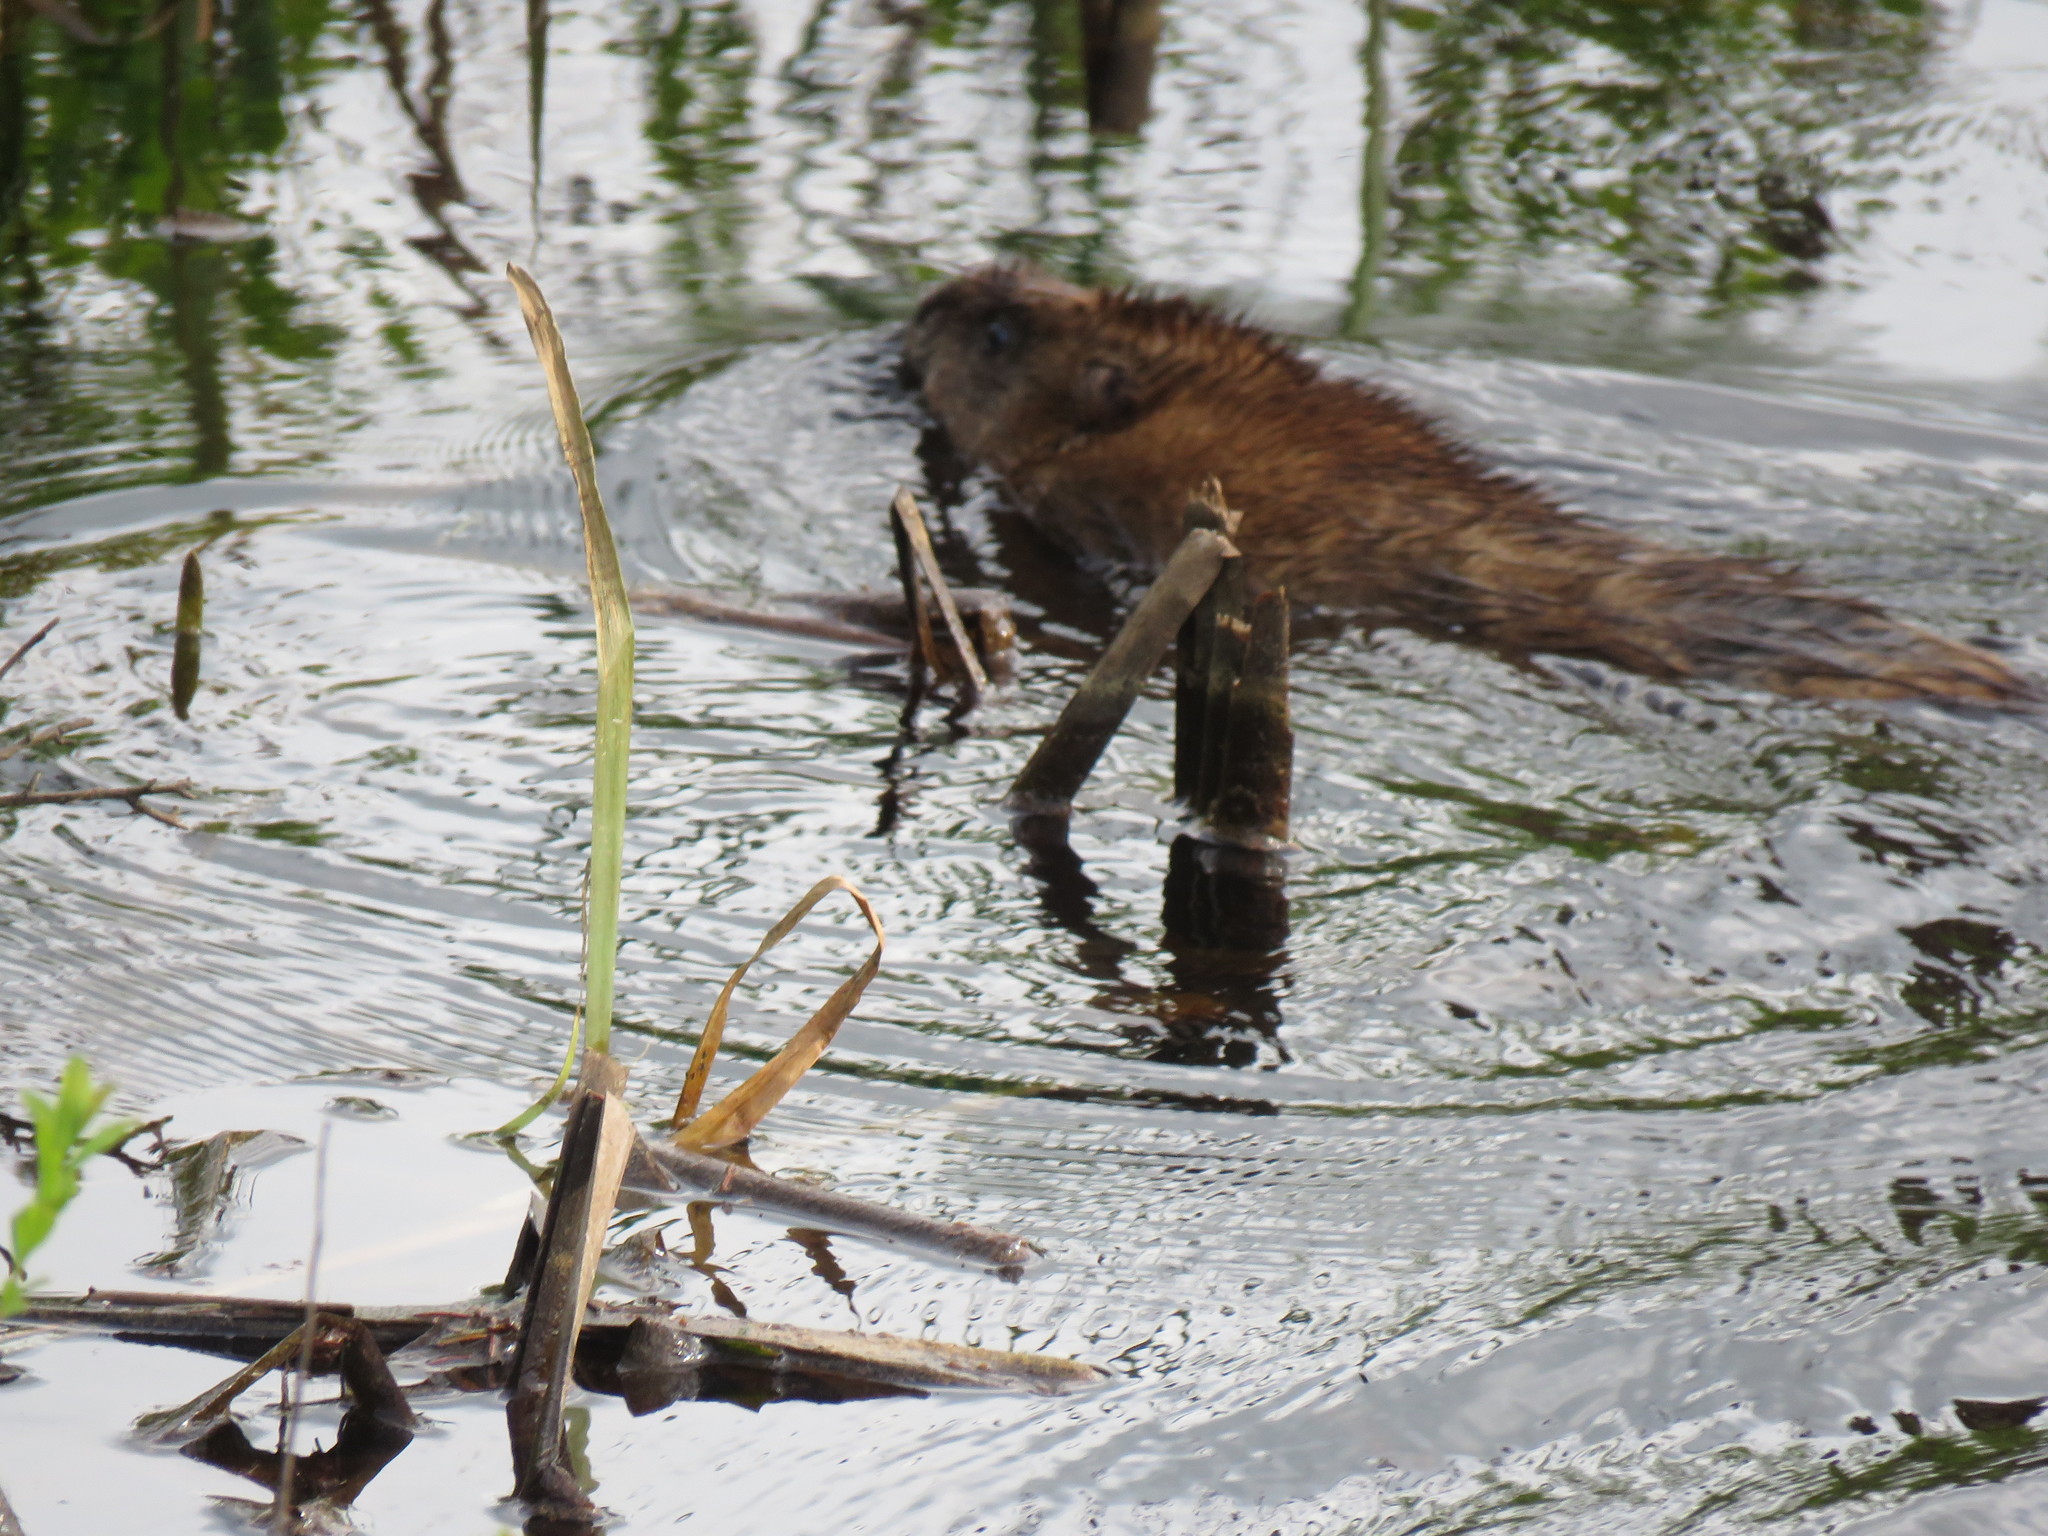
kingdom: Animalia
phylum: Chordata
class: Mammalia
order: Rodentia
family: Cricetidae
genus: Ondatra
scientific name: Ondatra zibethicus
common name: Muskrat
